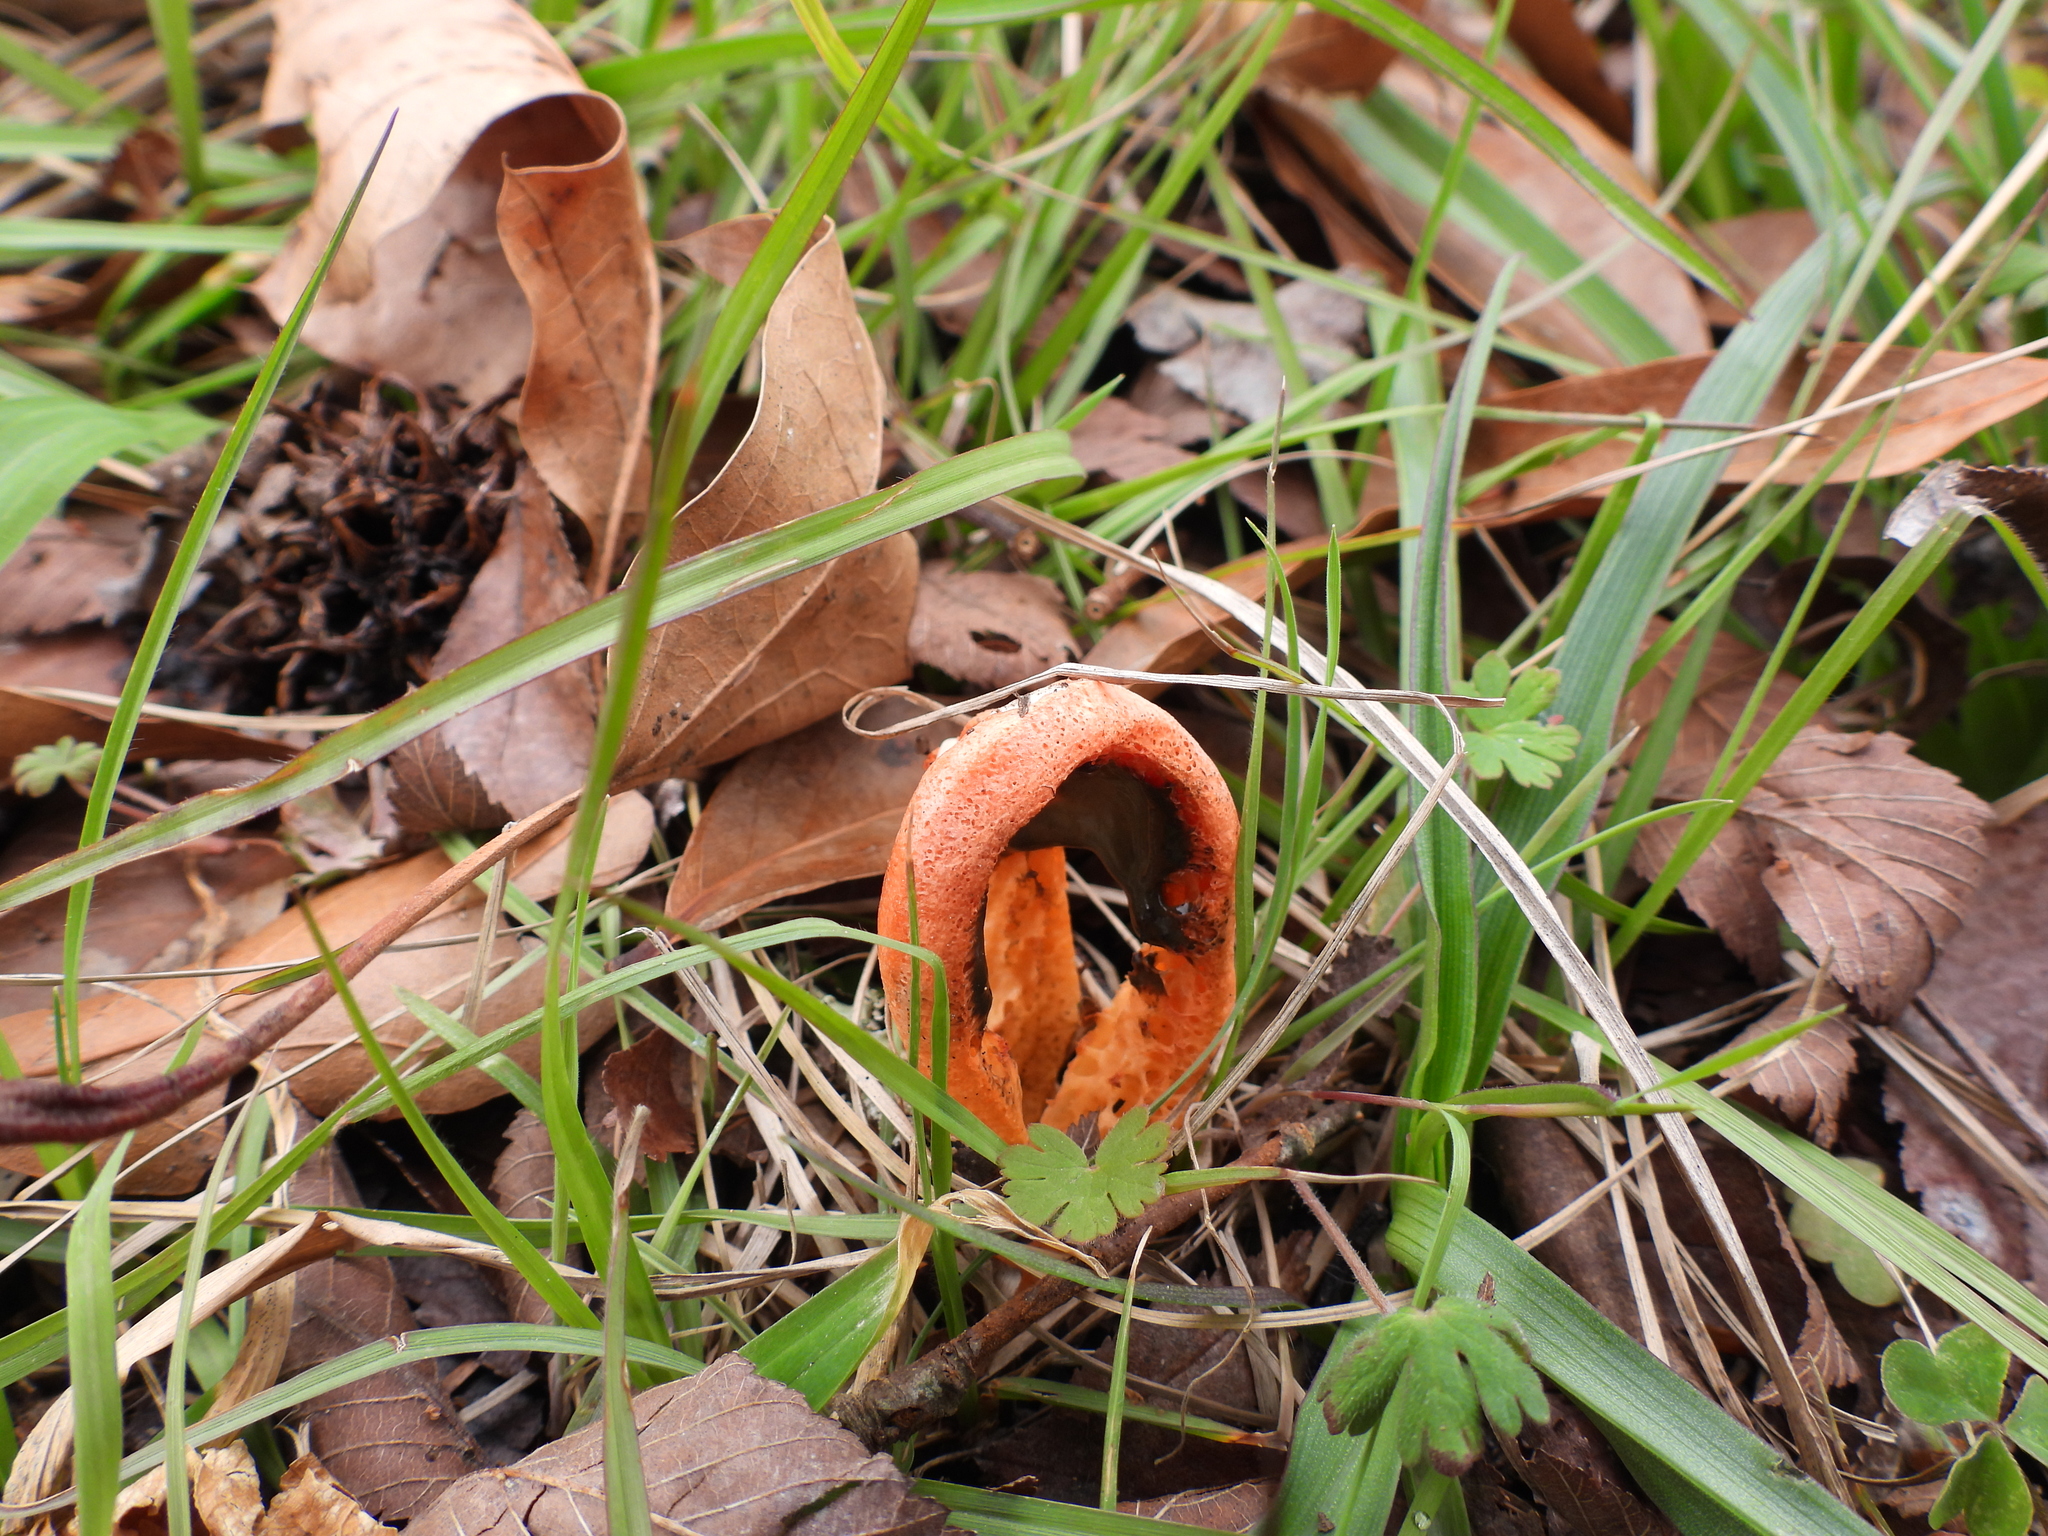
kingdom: Fungi
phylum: Basidiomycota
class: Agaricomycetes
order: Phallales
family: Phallaceae
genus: Clathrus
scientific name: Clathrus columnatus
